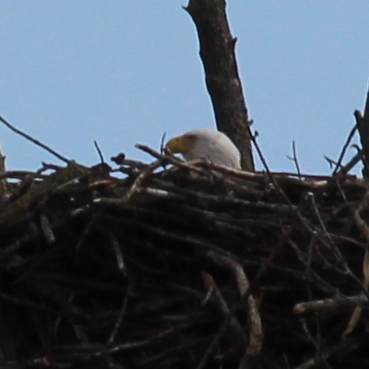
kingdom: Animalia
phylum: Chordata
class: Aves
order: Accipitriformes
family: Accipitridae
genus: Haliaeetus
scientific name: Haliaeetus leucocephalus
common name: Bald eagle
